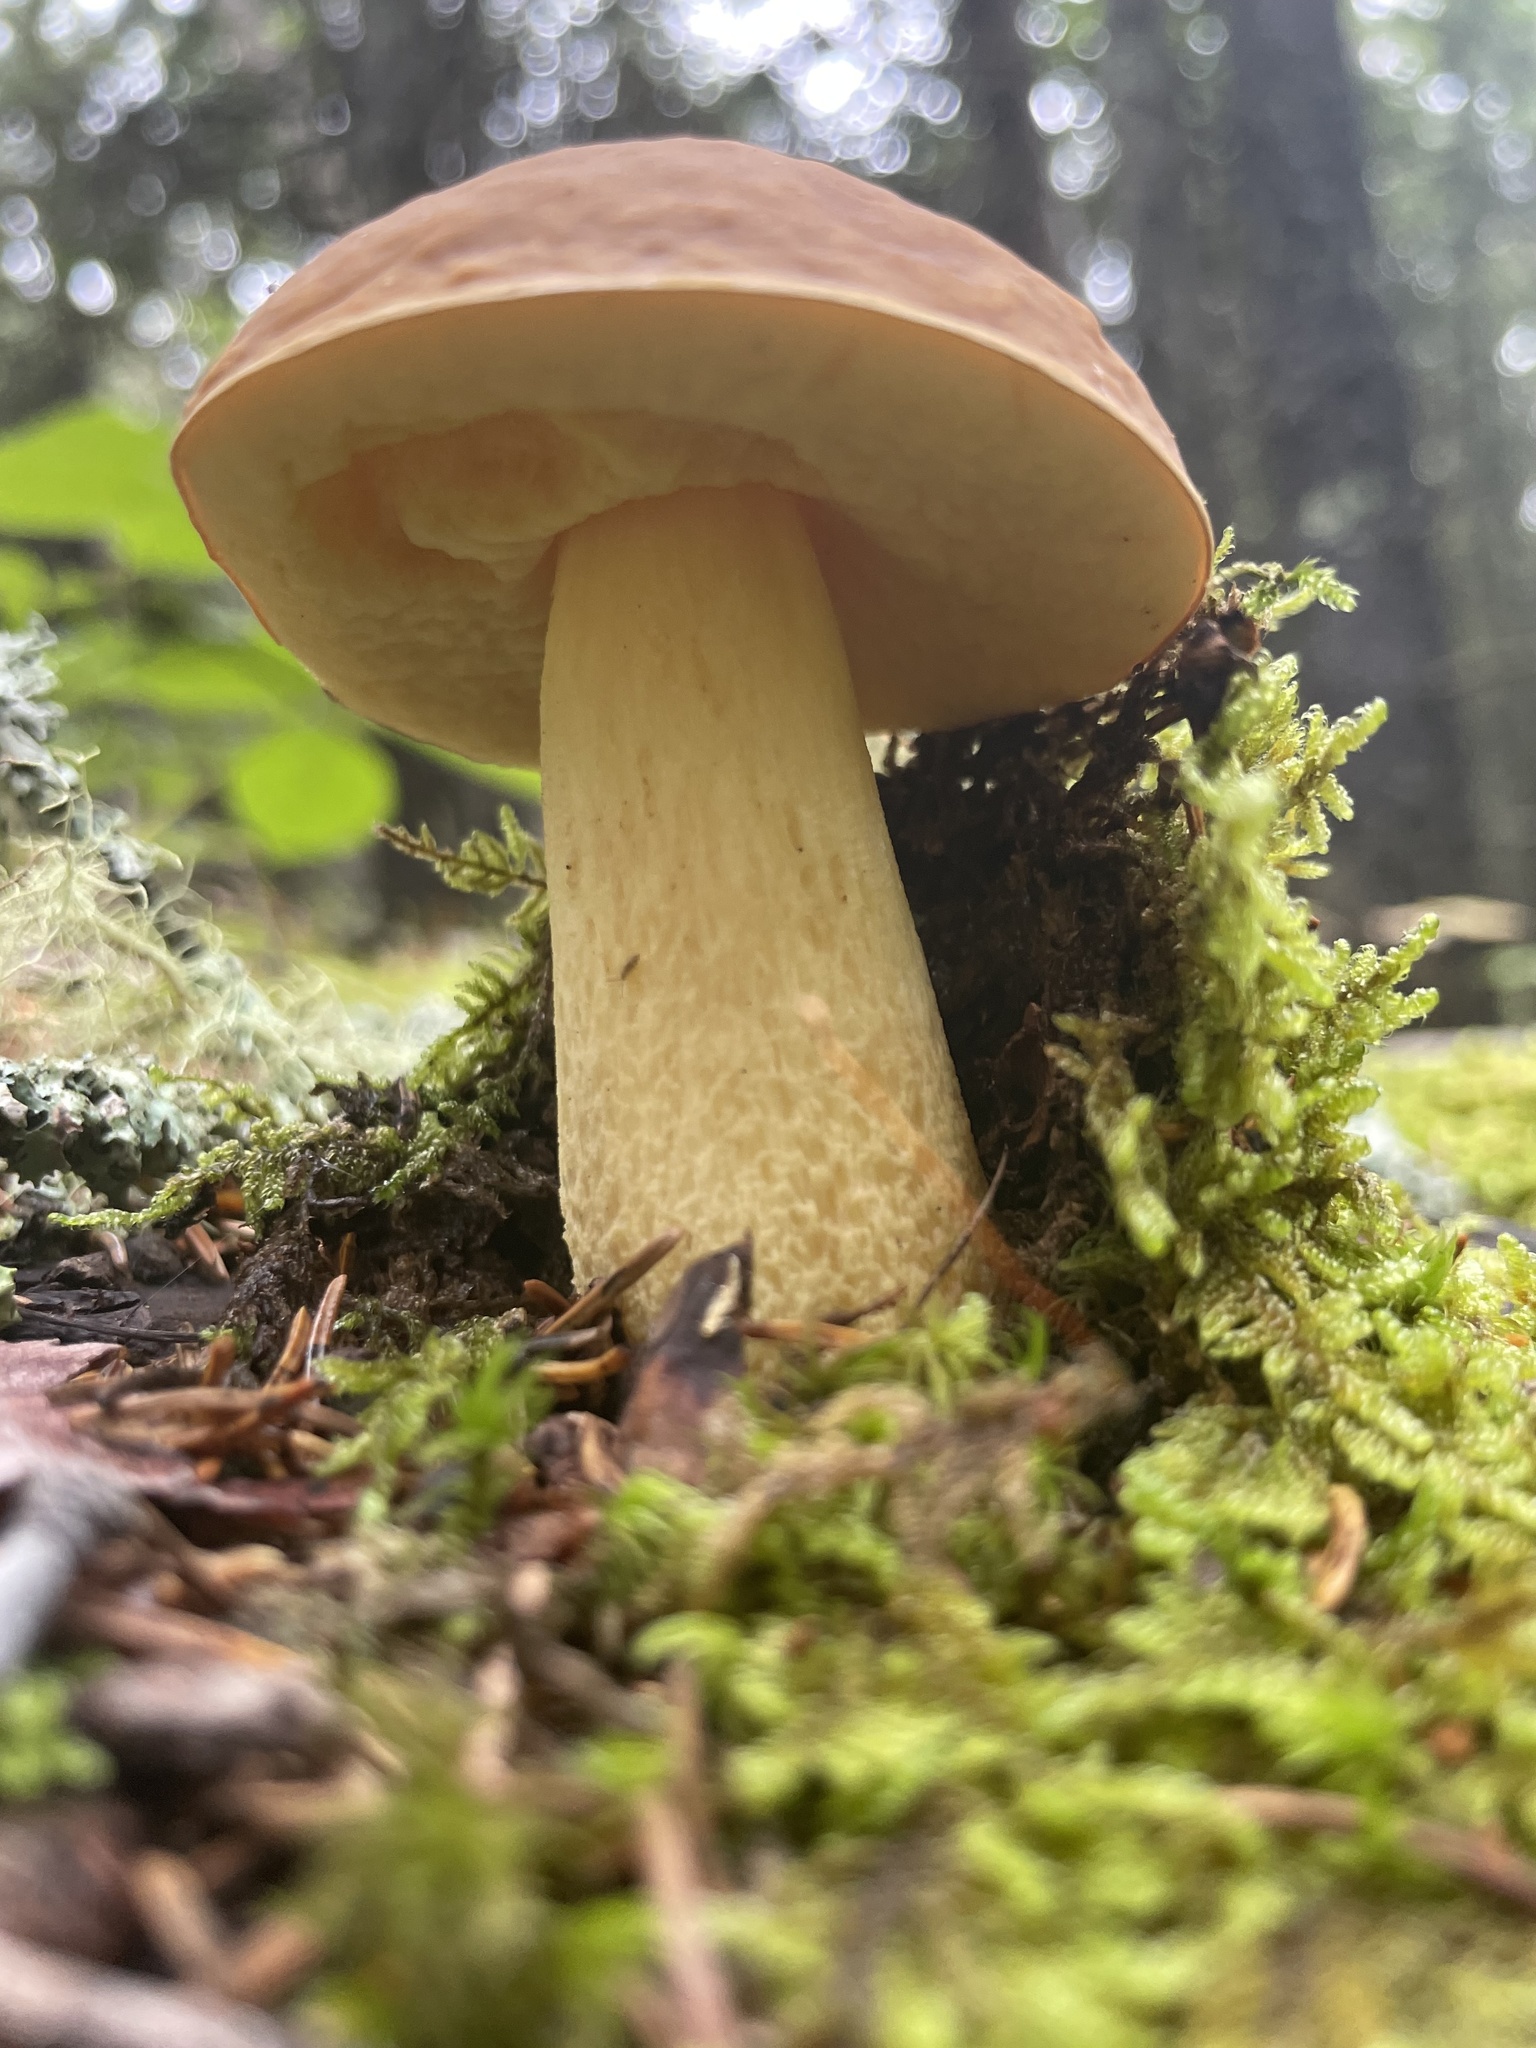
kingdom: Fungi
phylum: Basidiomycota
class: Agaricomycetes
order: Boletales
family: Boletaceae
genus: Hemileccinum
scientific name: Hemileccinum subglabripes
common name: Smoothish-stemmed bolete
